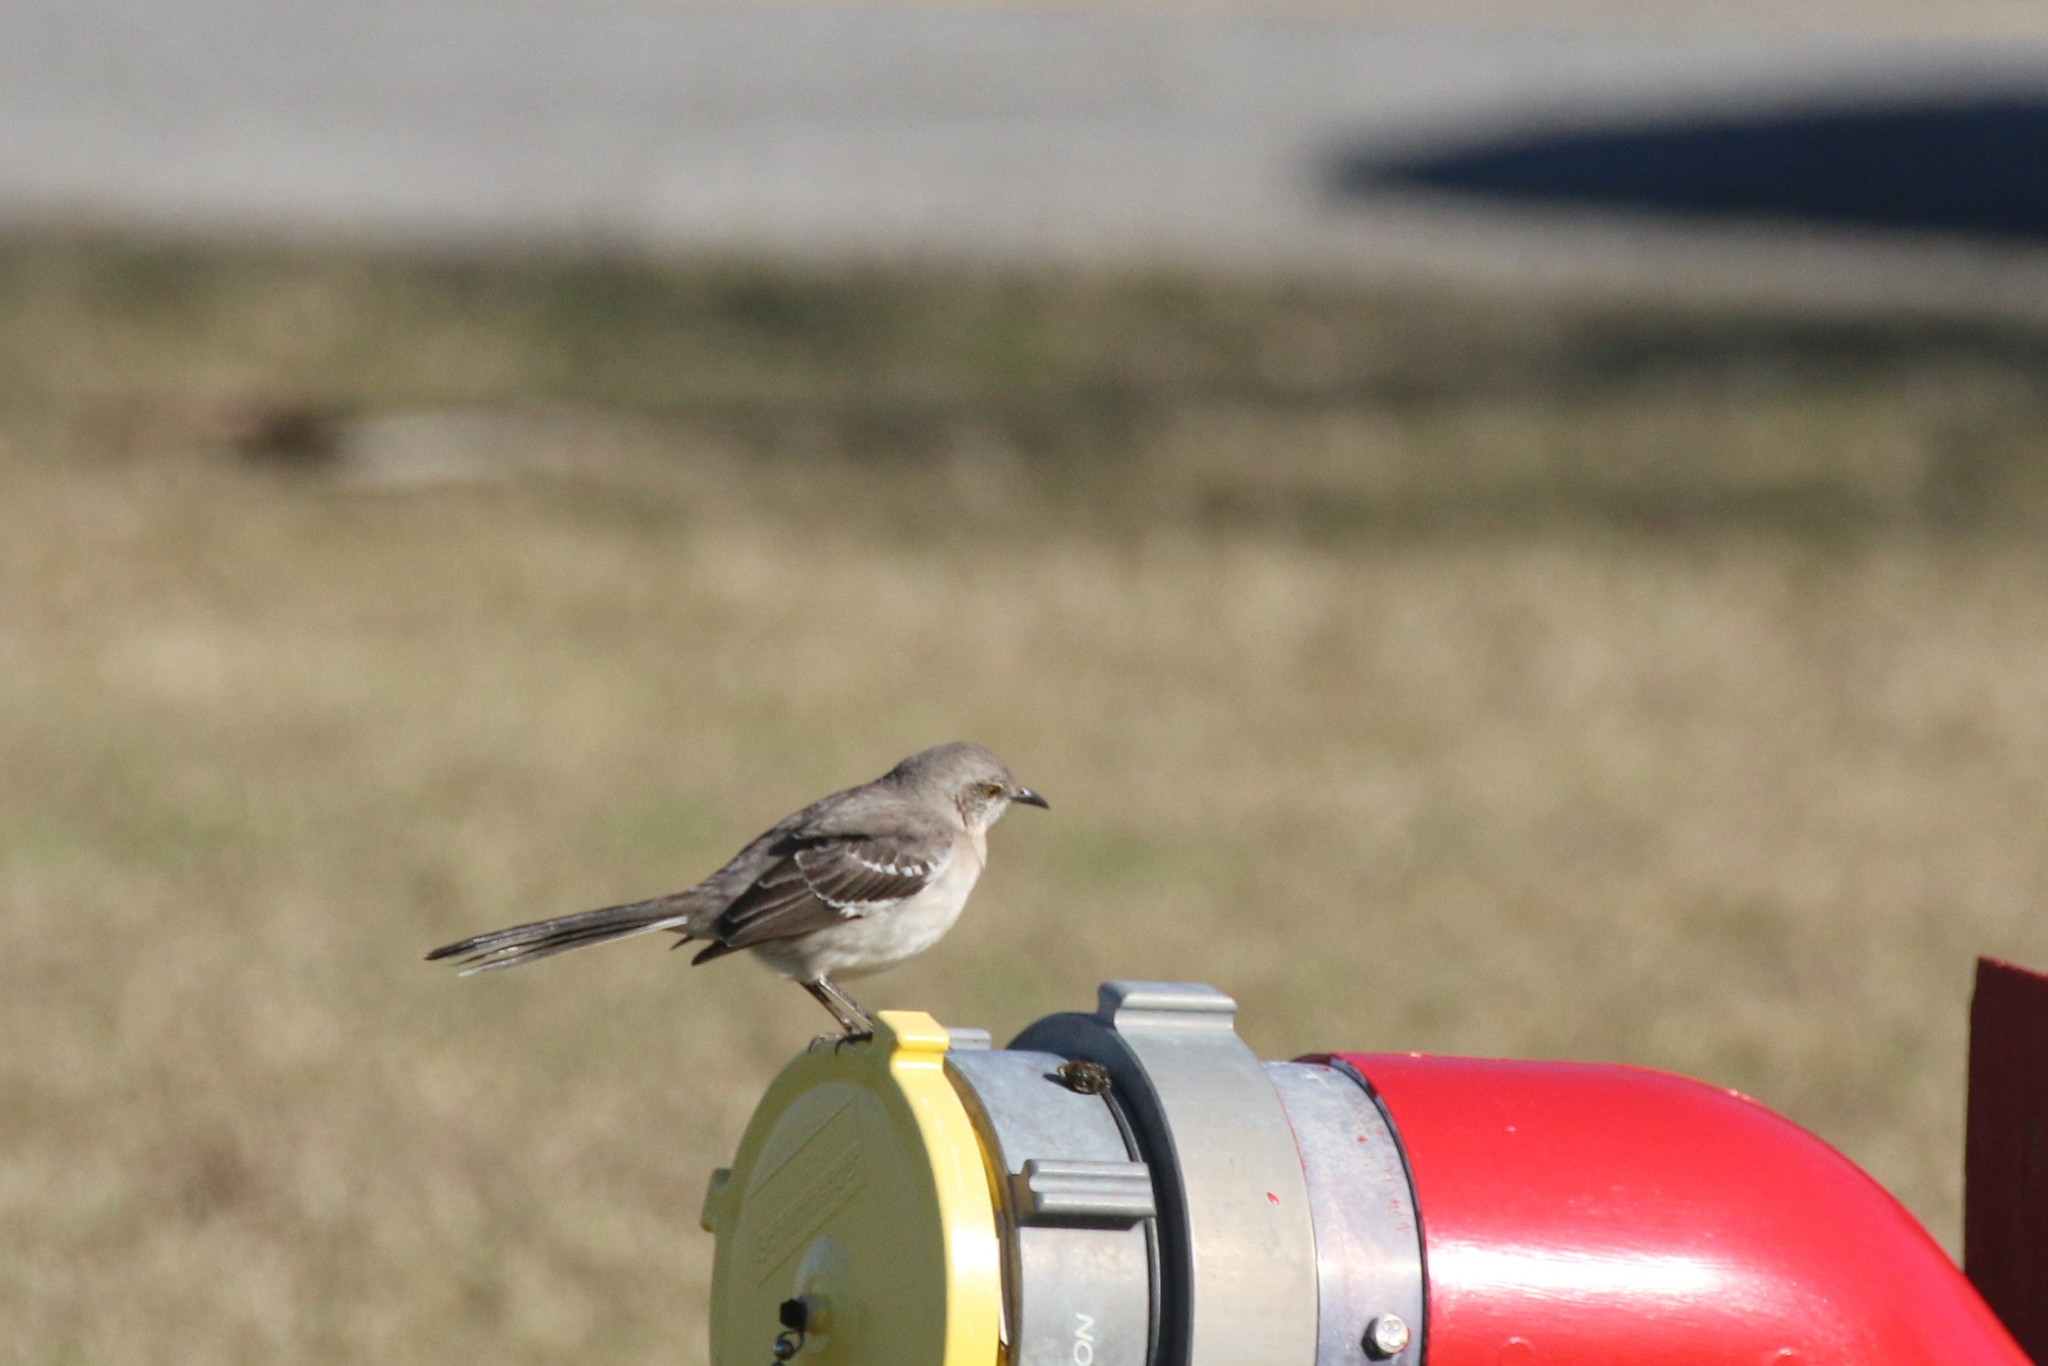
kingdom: Animalia
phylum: Chordata
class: Aves
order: Passeriformes
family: Mimidae
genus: Mimus
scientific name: Mimus polyglottos
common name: Northern mockingbird
